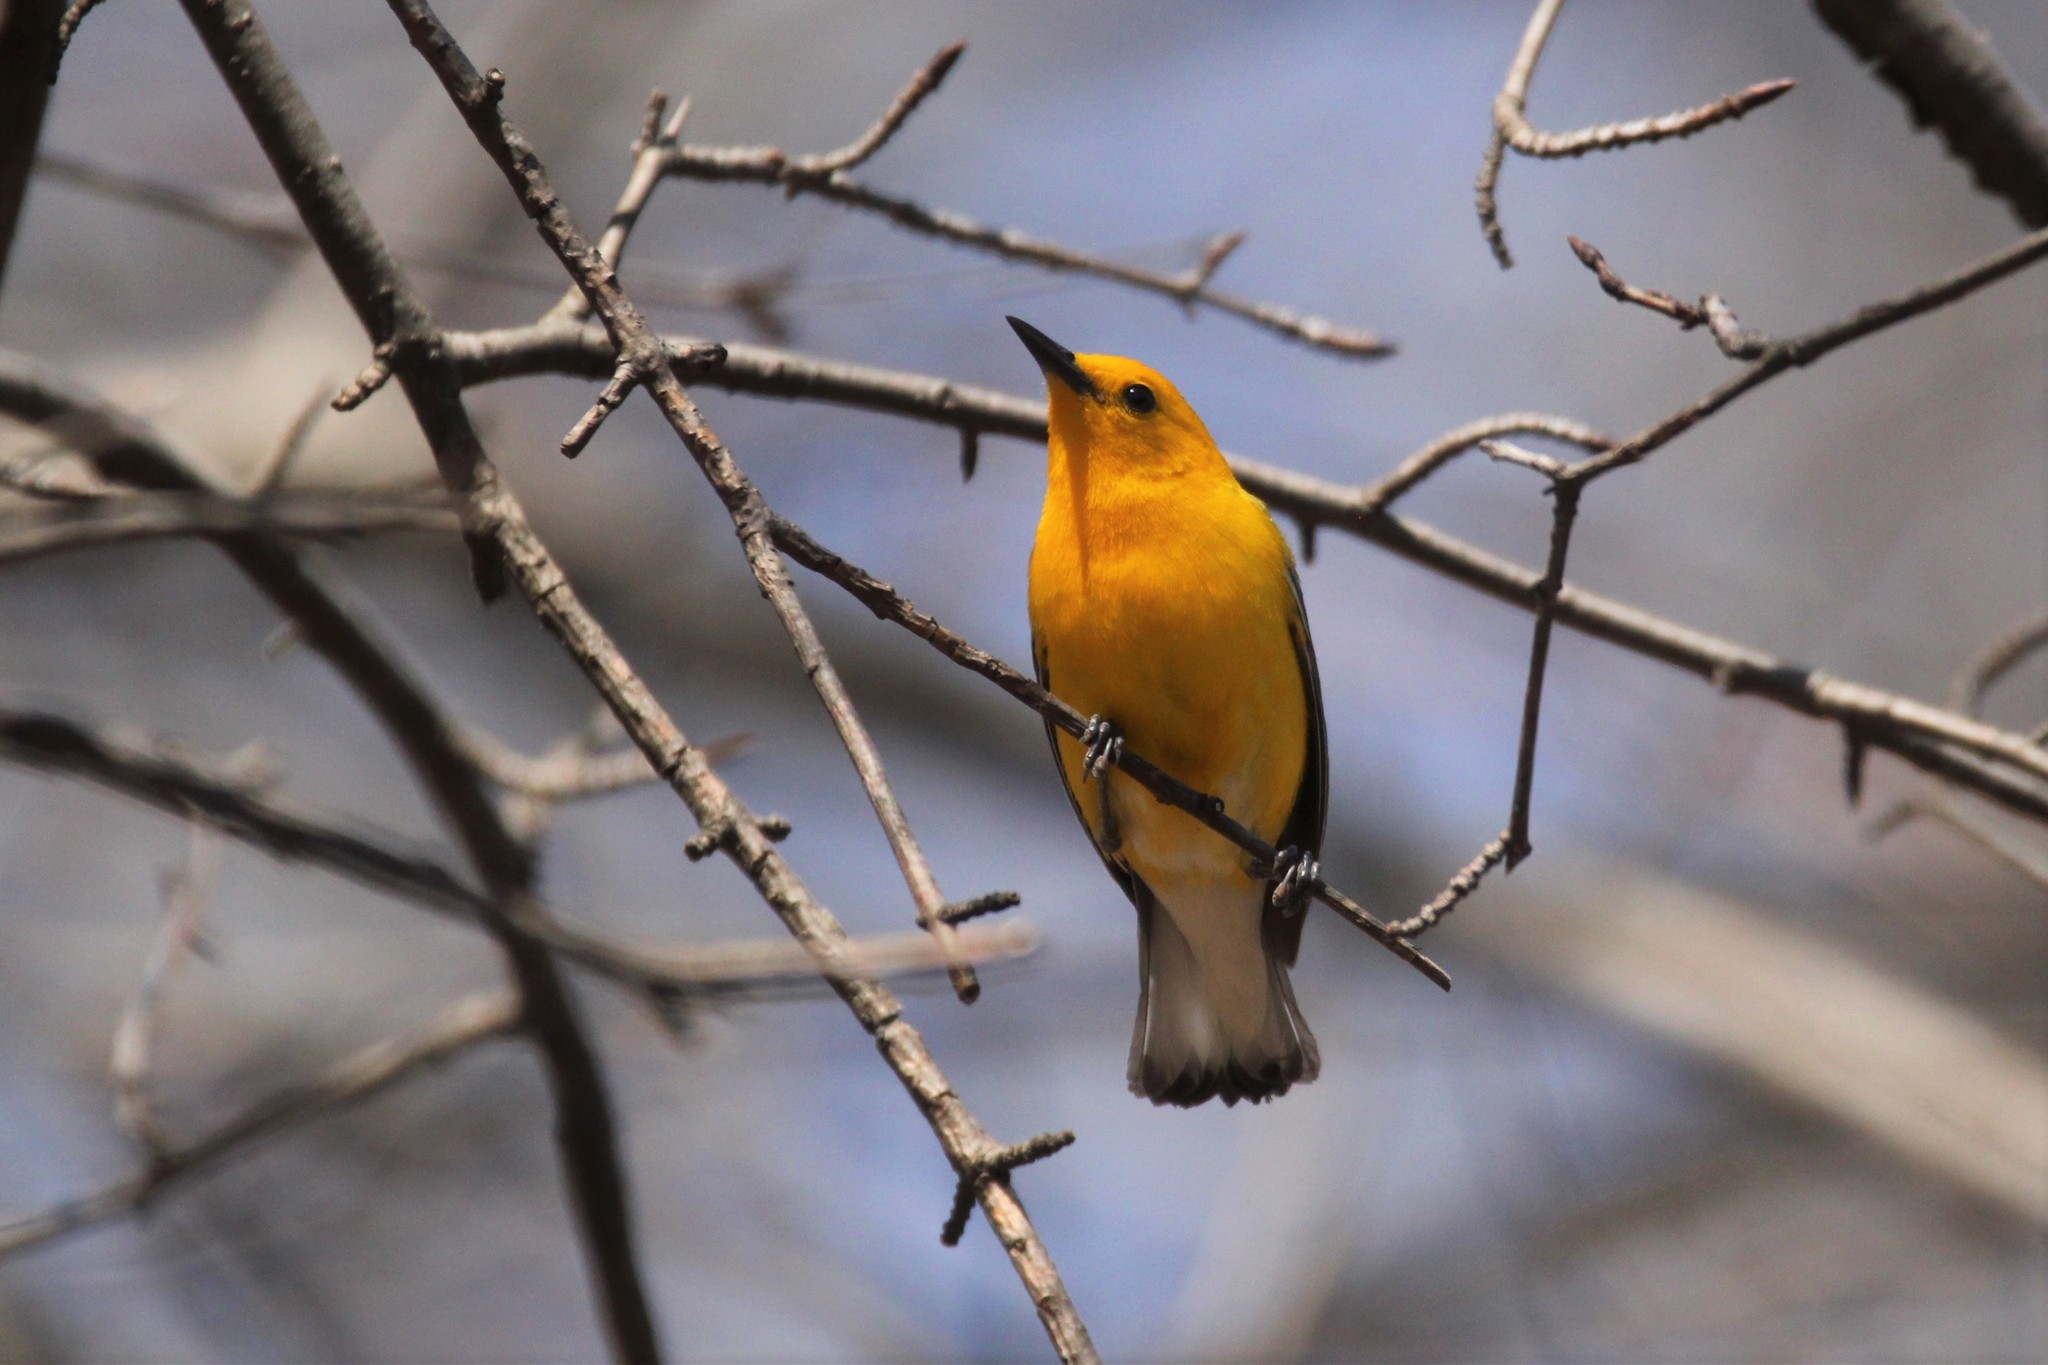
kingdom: Animalia
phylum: Chordata
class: Aves
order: Passeriformes
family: Parulidae
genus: Protonotaria
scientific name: Protonotaria citrea
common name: Prothonotary warbler
